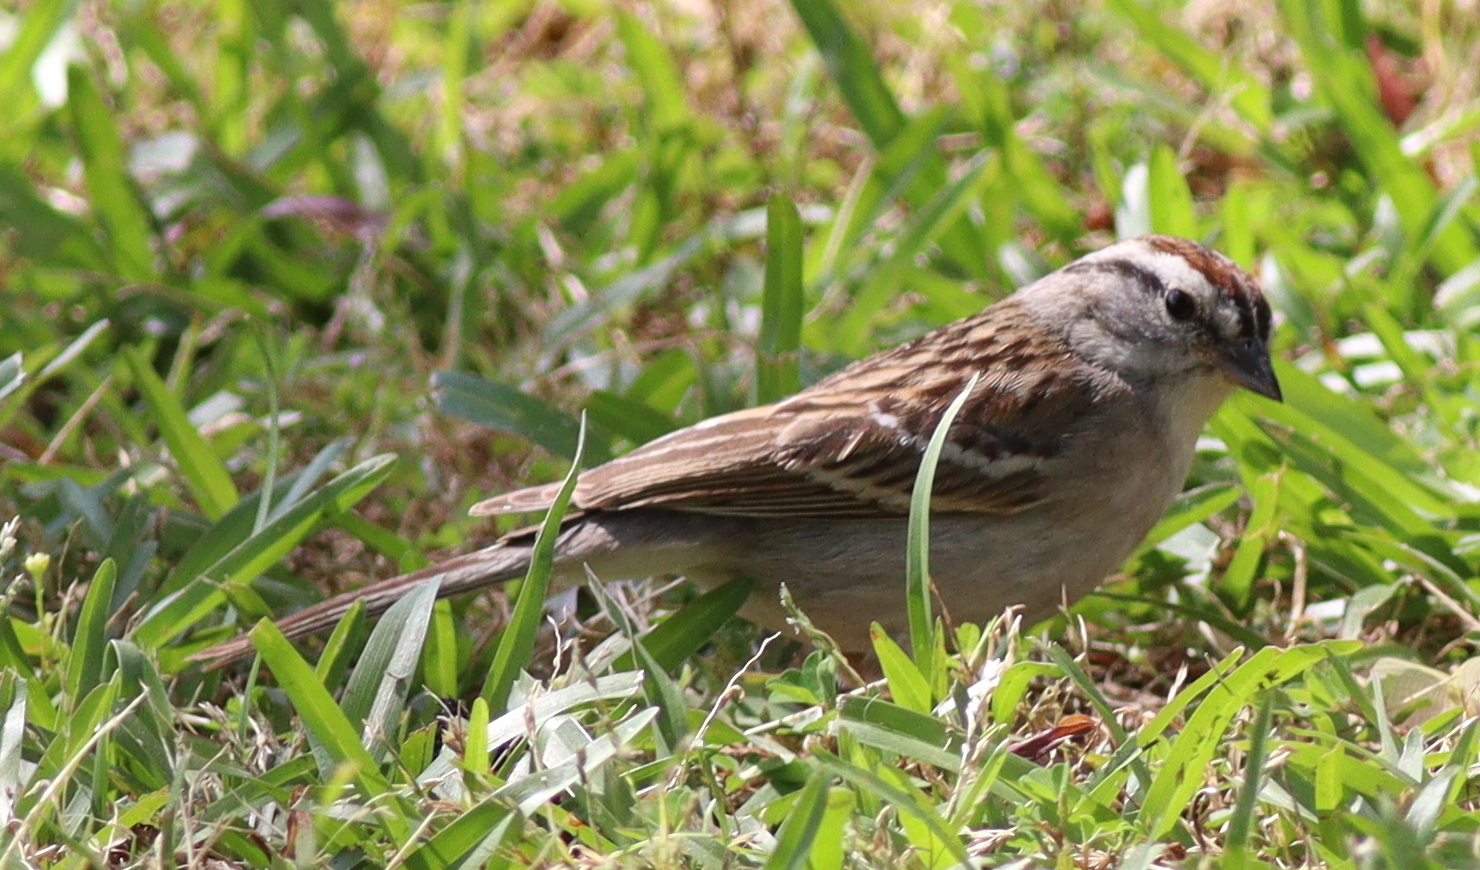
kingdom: Animalia
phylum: Chordata
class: Aves
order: Passeriformes
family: Passerellidae
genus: Spizella
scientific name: Spizella passerina
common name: Chipping sparrow
